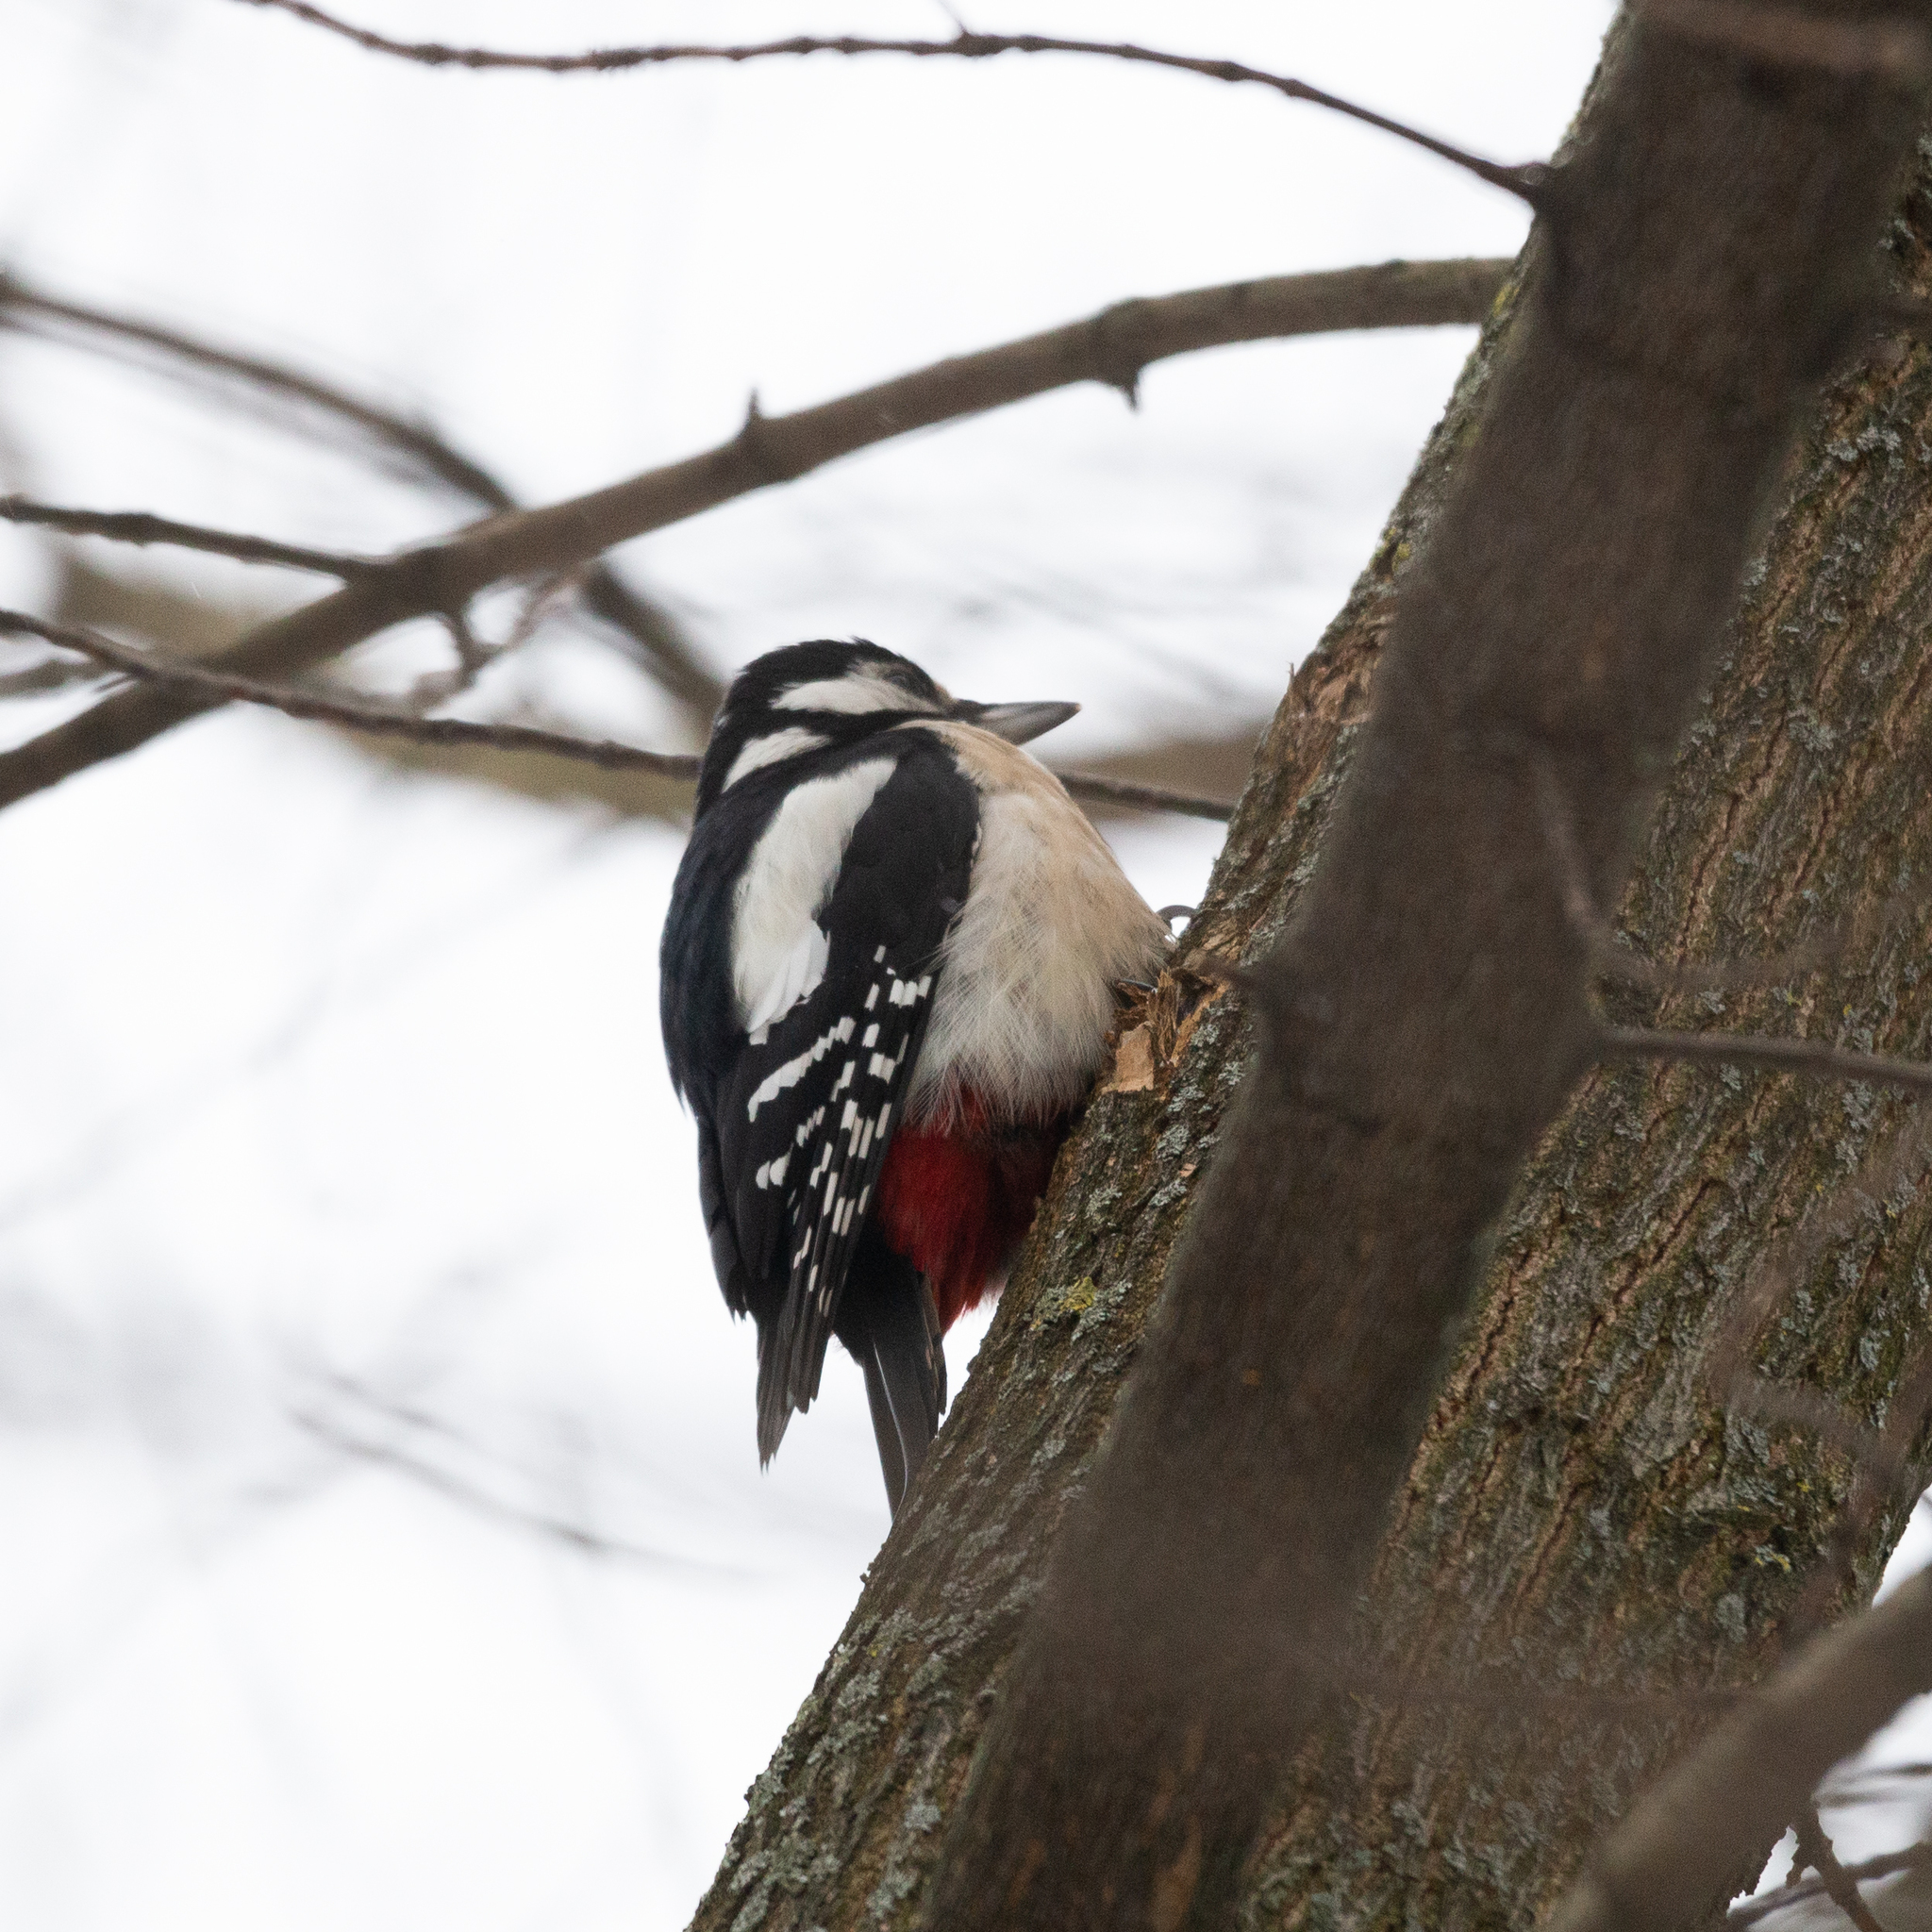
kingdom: Animalia
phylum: Chordata
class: Aves
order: Piciformes
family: Picidae
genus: Dendrocopos
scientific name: Dendrocopos major
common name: Great spotted woodpecker
